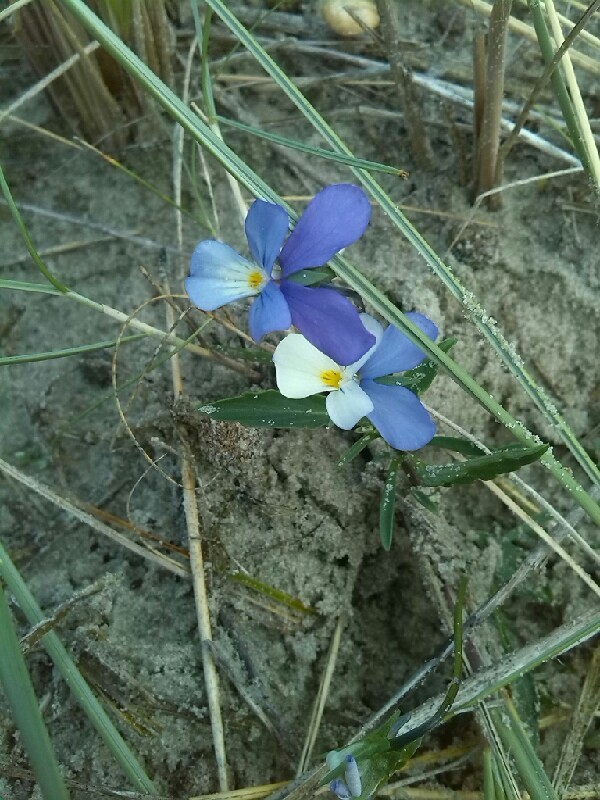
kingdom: Plantae
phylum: Tracheophyta
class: Magnoliopsida
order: Malpighiales
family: Violaceae
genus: Viola
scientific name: Viola tricolor
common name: Pansy
